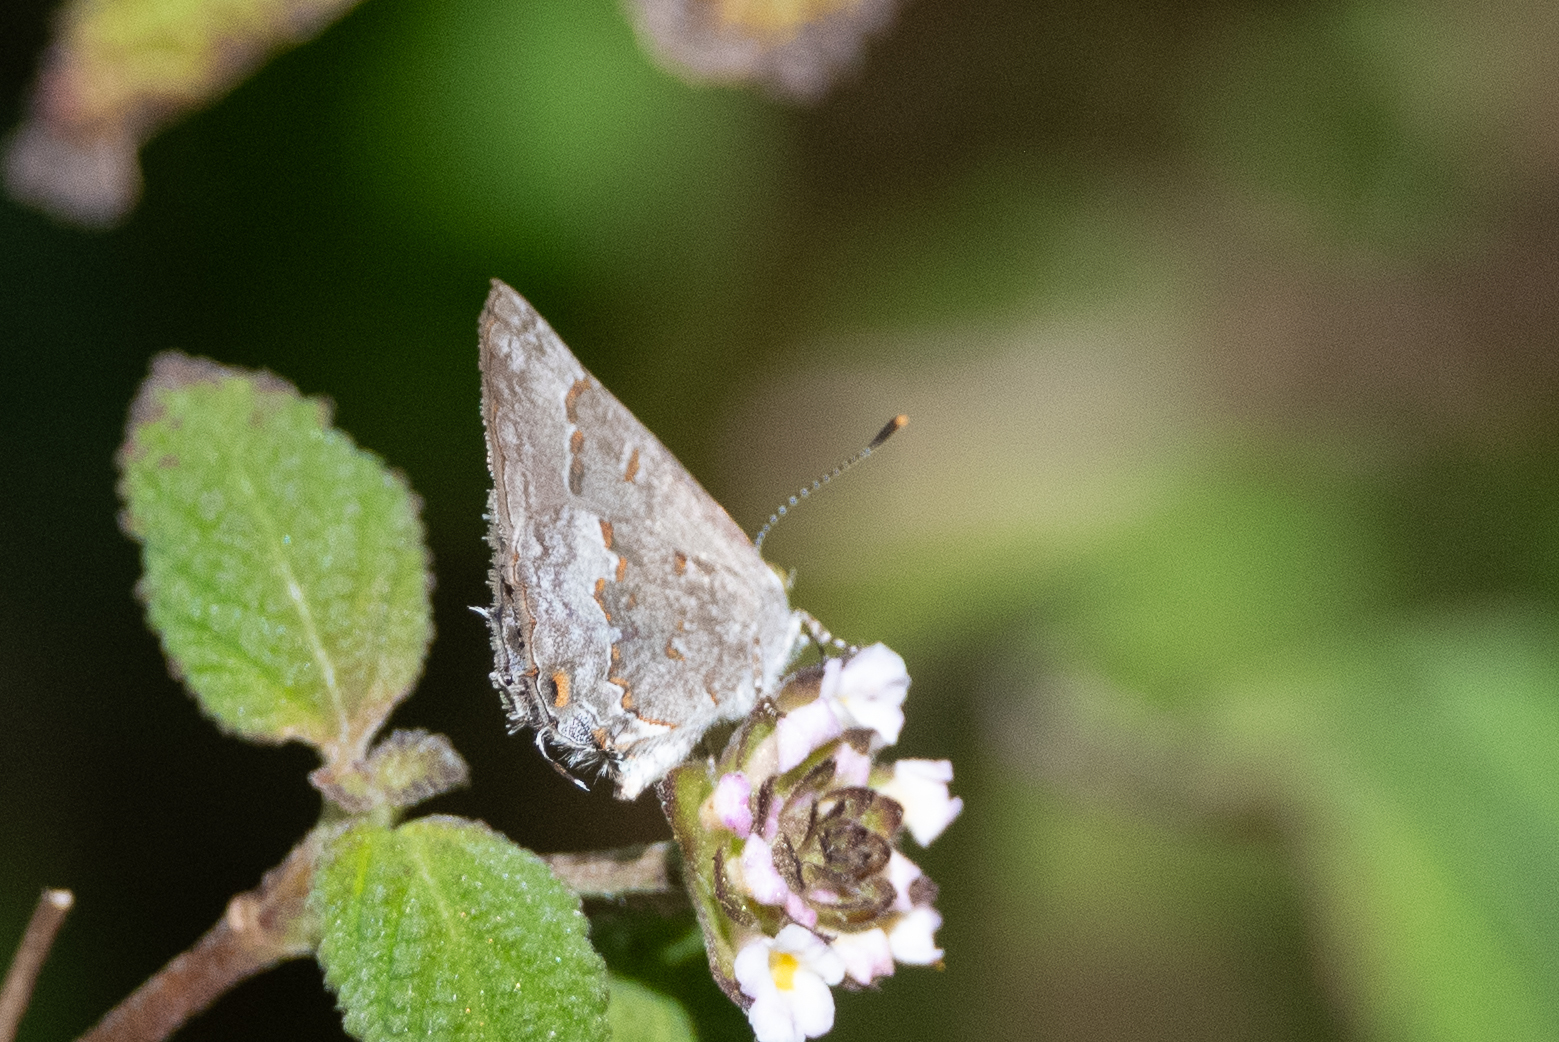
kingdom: Animalia
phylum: Arthropoda
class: Insecta
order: Lepidoptera
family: Lycaenidae
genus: Ministrymon
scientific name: Ministrymon clytie
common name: Clytie ministreak
